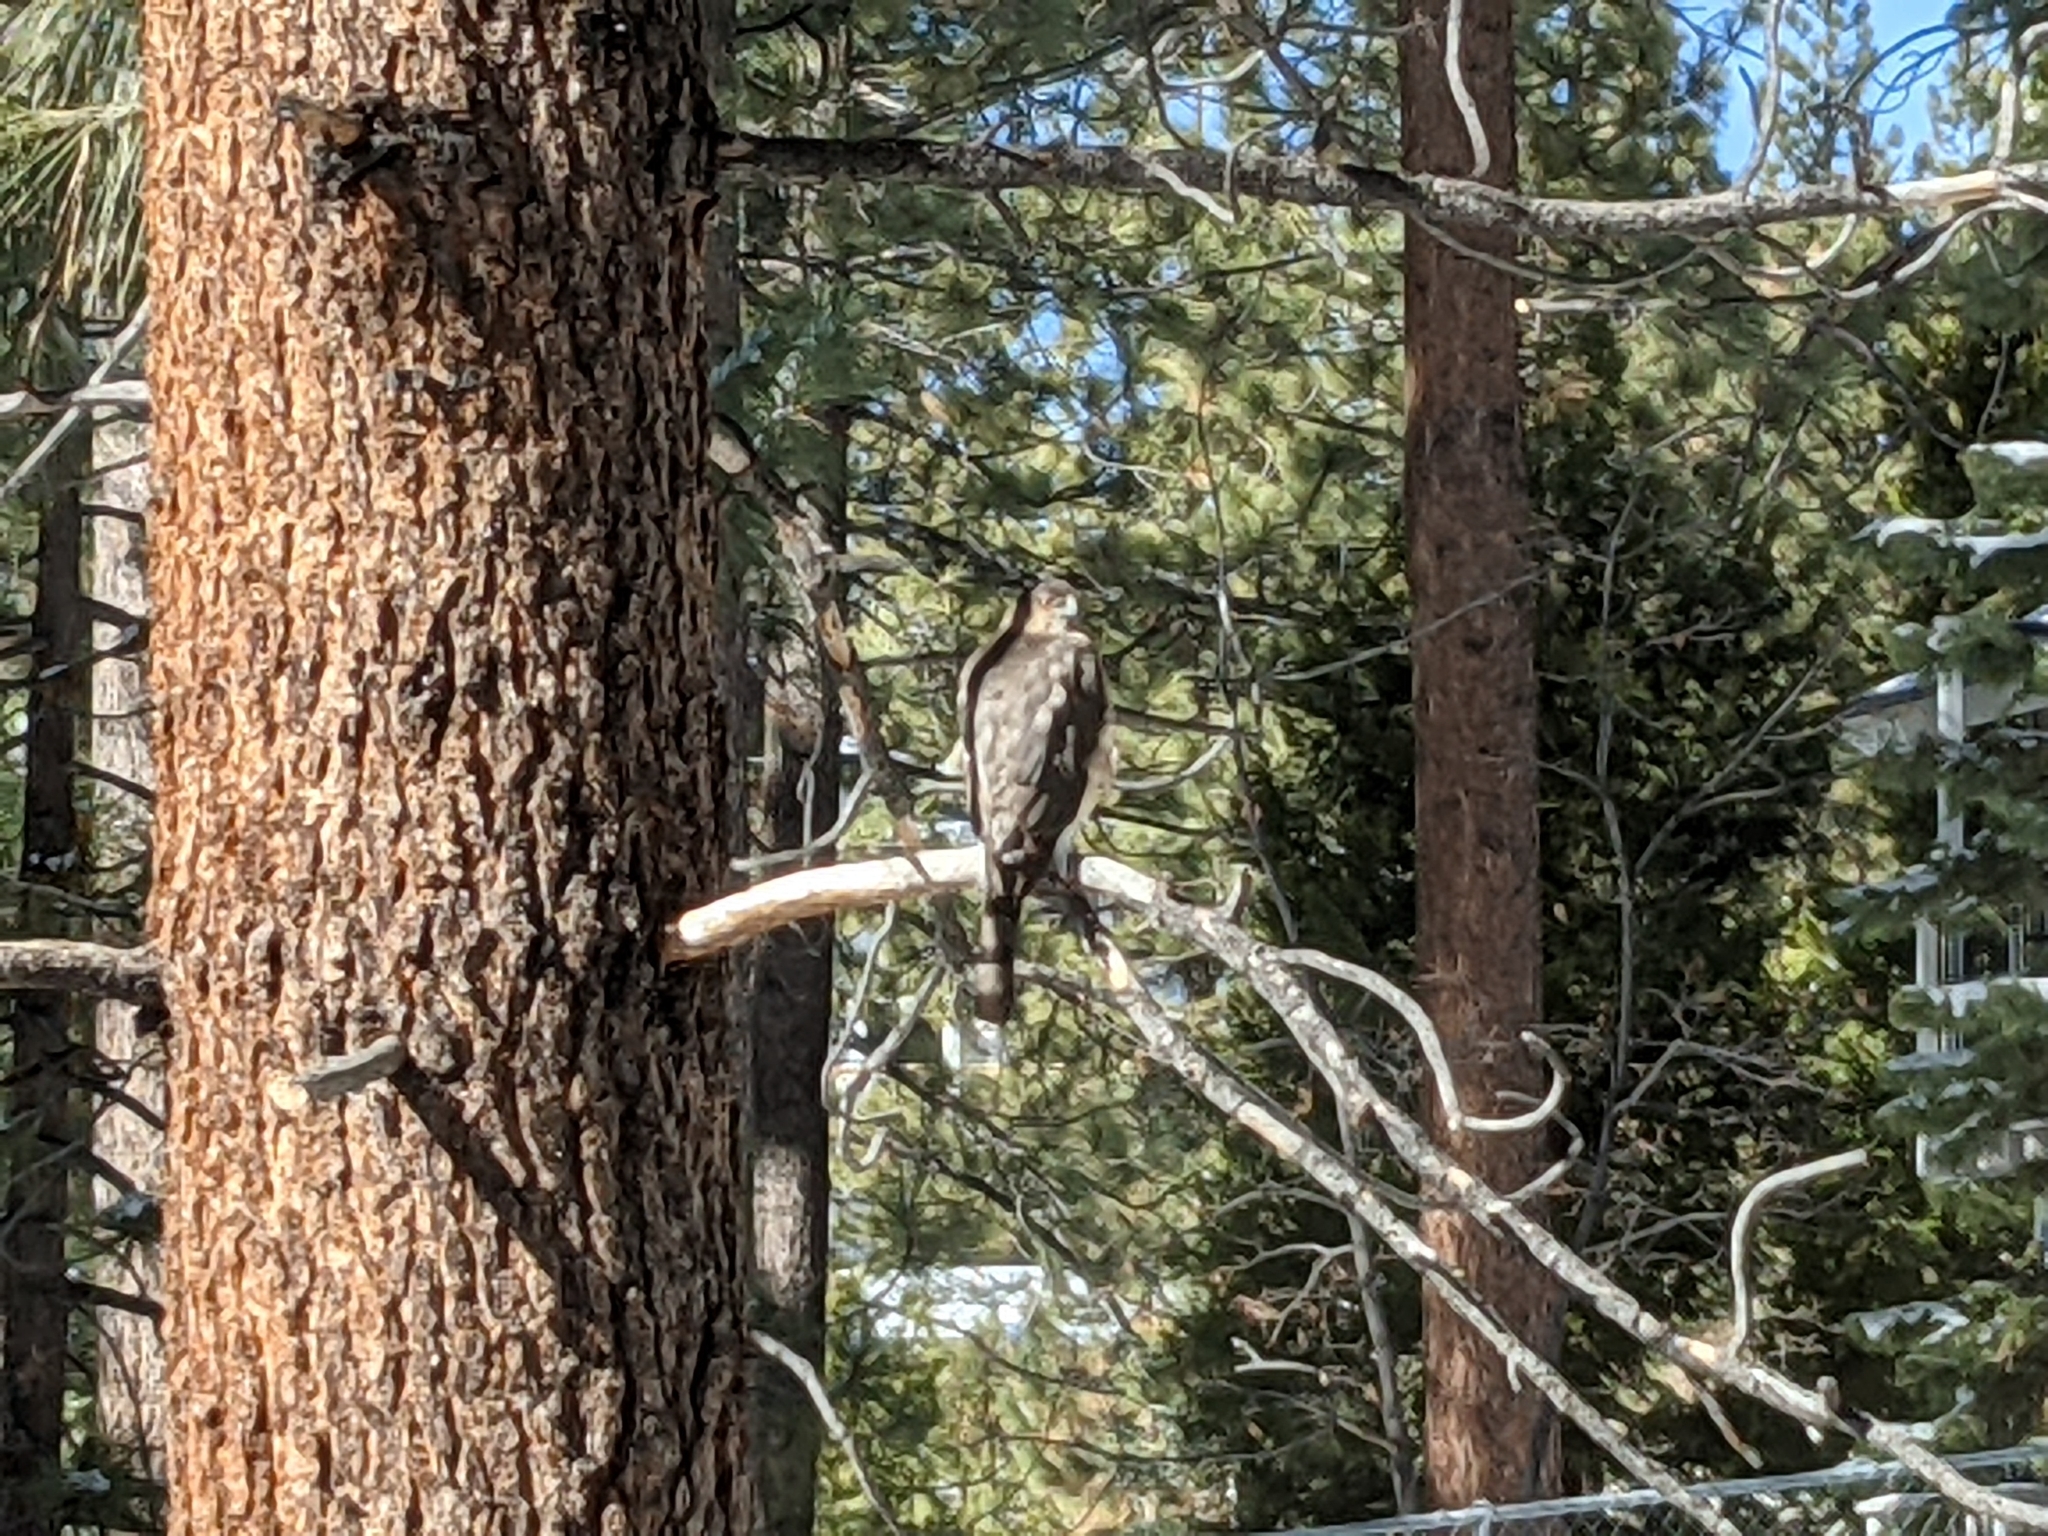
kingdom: Animalia
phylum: Chordata
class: Aves
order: Accipitriformes
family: Accipitridae
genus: Accipiter
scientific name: Accipiter cooperii
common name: Cooper's hawk
